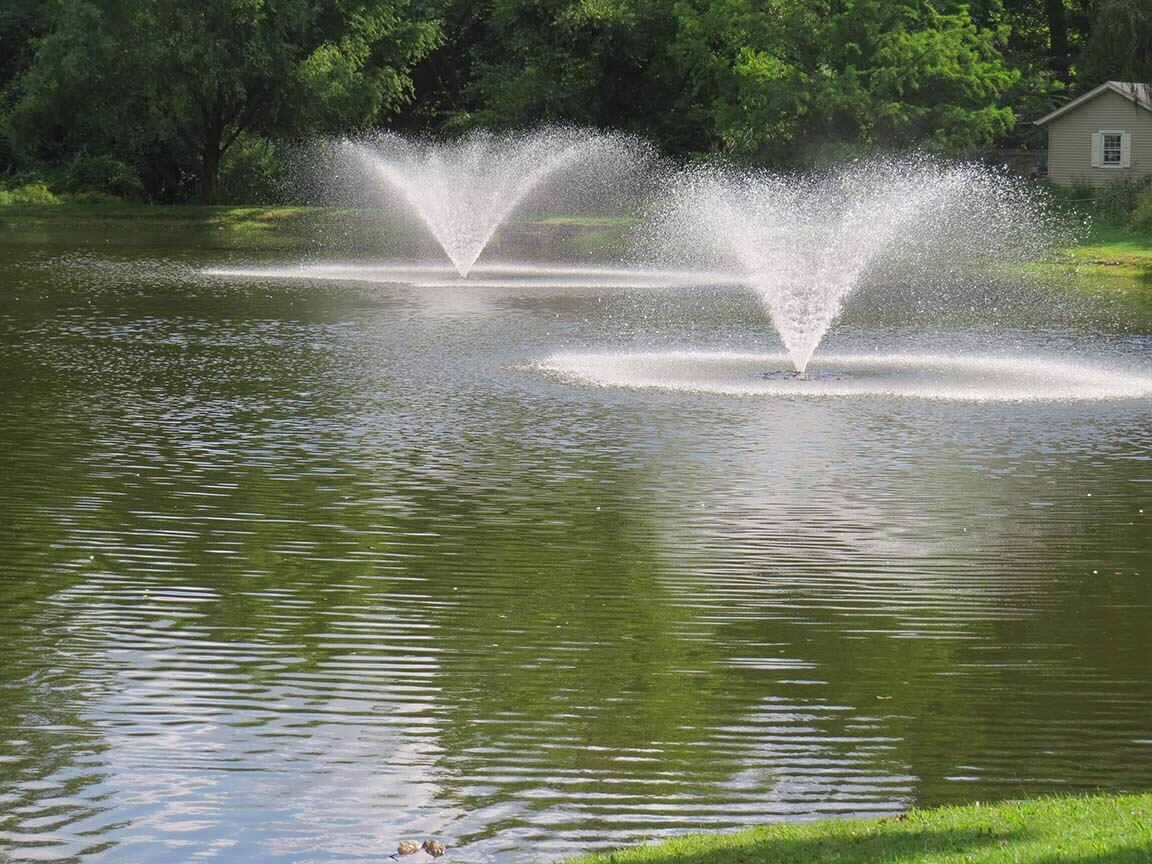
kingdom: Animalia
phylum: Chordata
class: Aves
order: Anseriformes
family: Anatidae
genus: Anas
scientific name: Anas platyrhynchos
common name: Mallard
